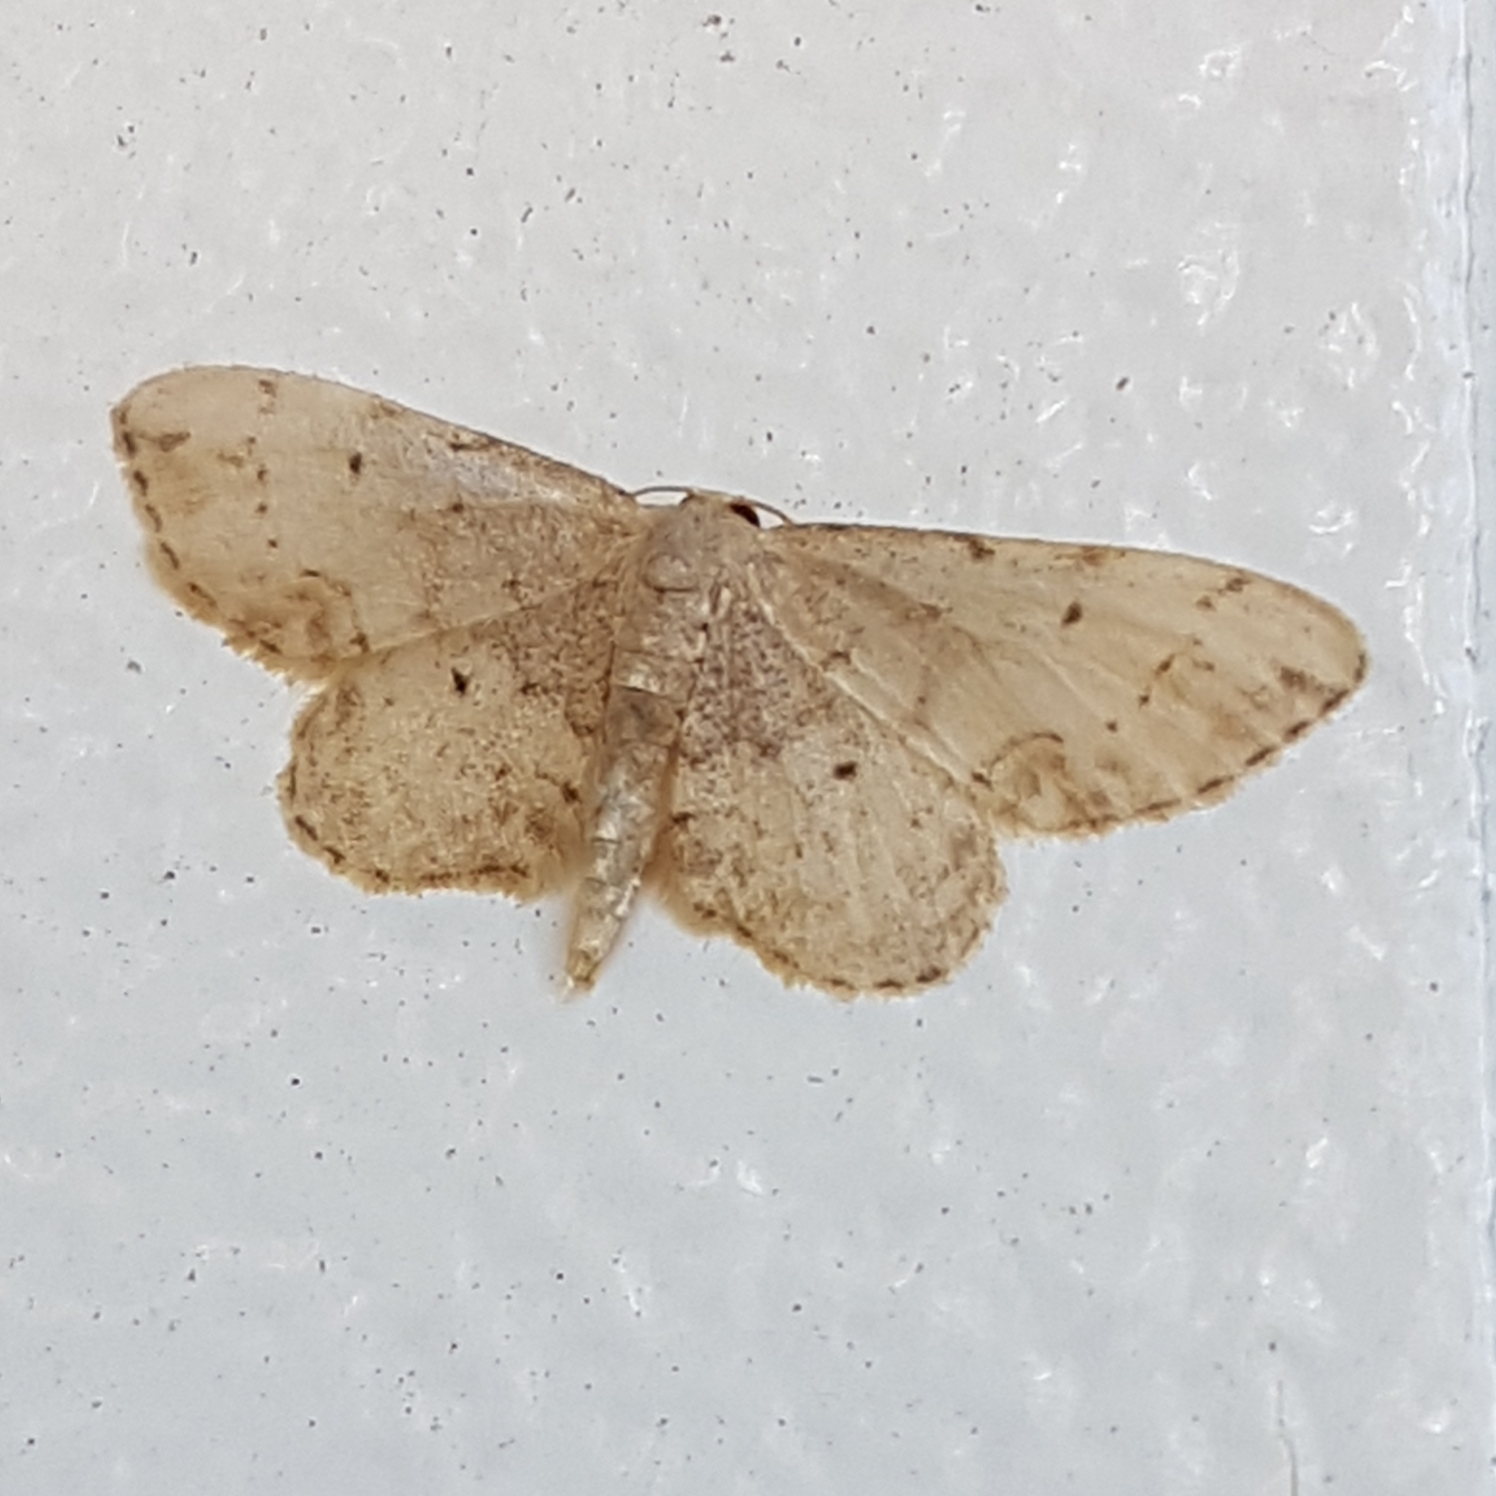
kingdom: Animalia
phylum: Arthropoda
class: Insecta
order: Lepidoptera
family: Geometridae
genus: Idaea
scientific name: Idaea efflorata
